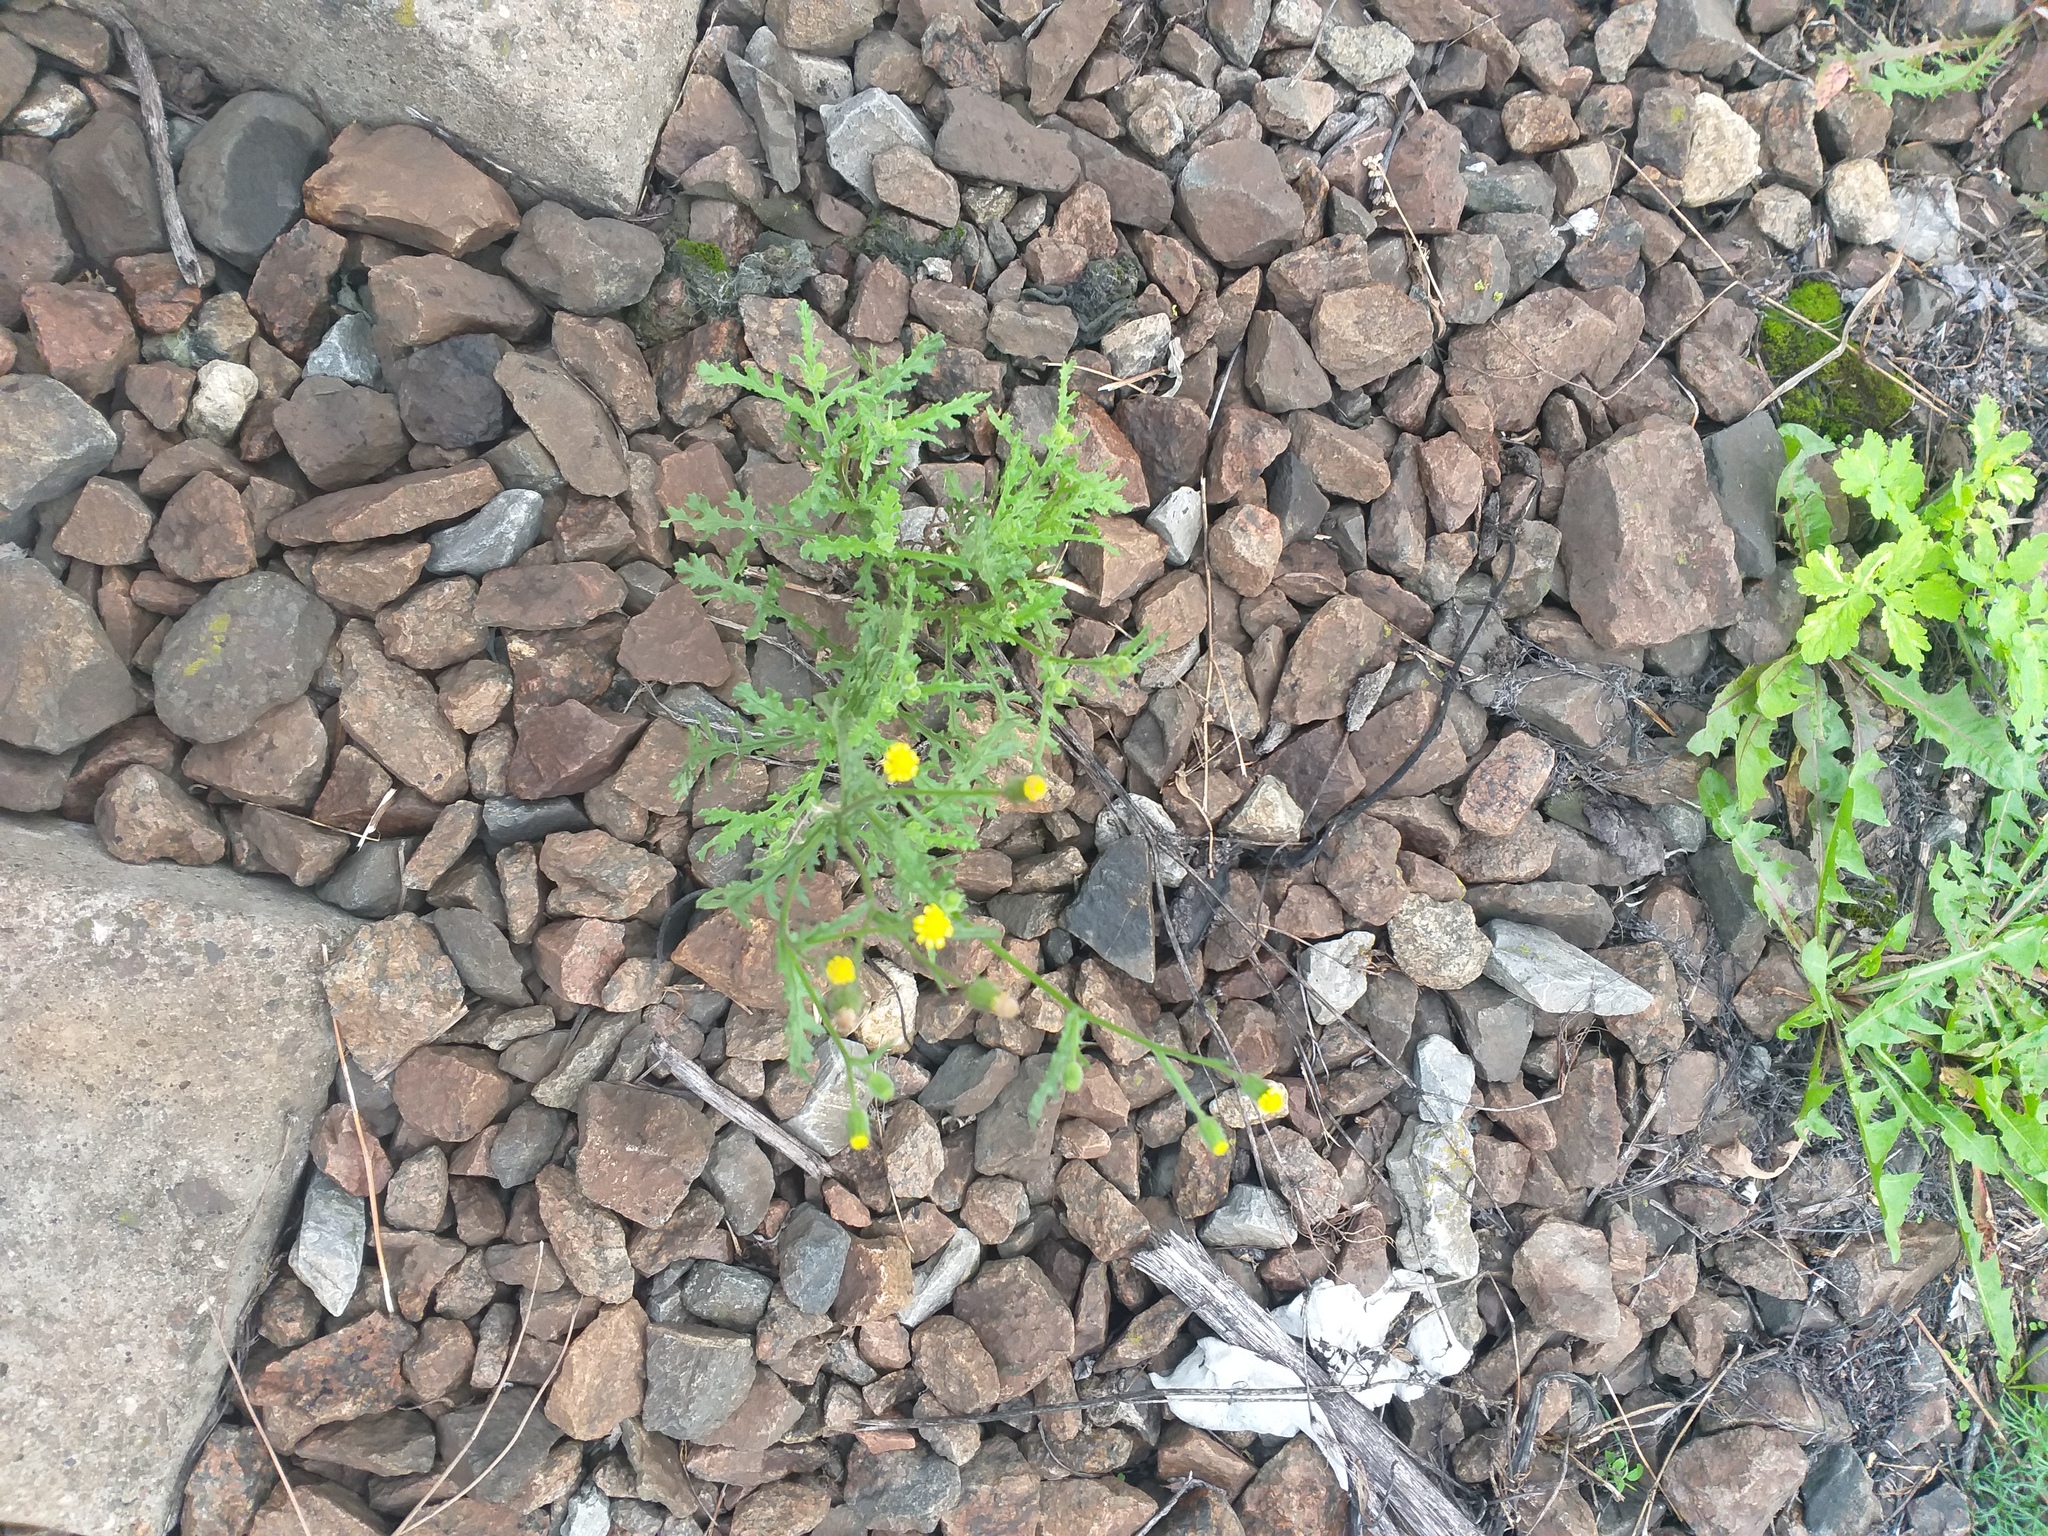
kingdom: Plantae
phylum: Tracheophyta
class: Magnoliopsida
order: Asterales
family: Asteraceae
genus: Senecio
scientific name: Senecio viscosus
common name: Sticky groundsel
